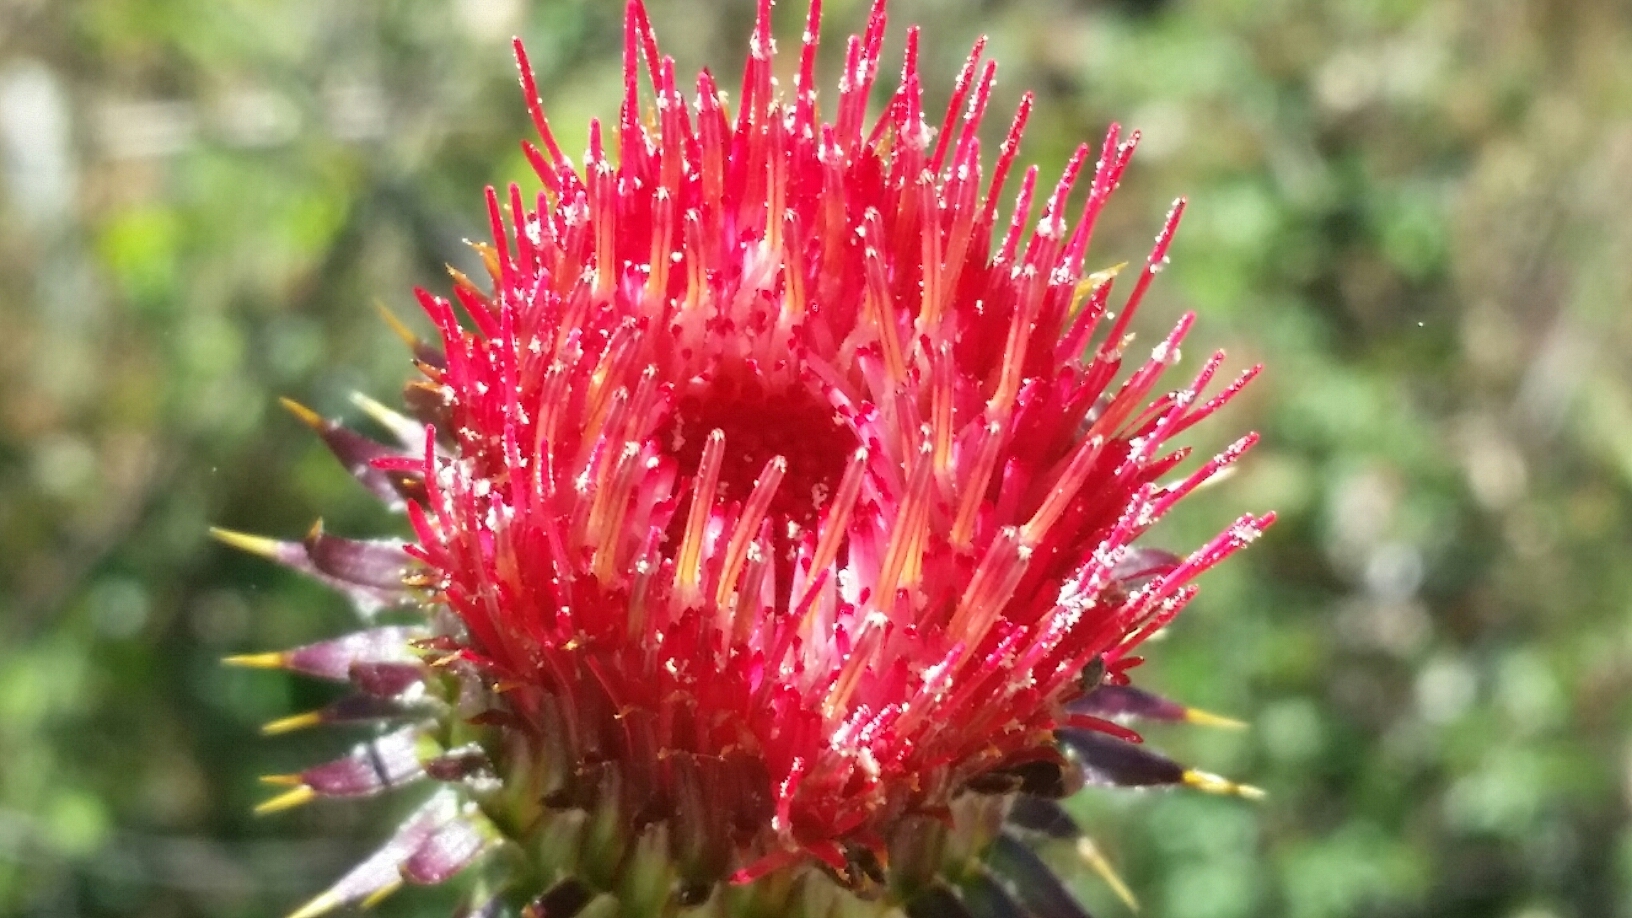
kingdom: Plantae
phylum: Tracheophyta
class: Magnoliopsida
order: Asterales
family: Asteraceae
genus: Cirsium
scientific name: Cirsium occidentale
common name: Western thistle
